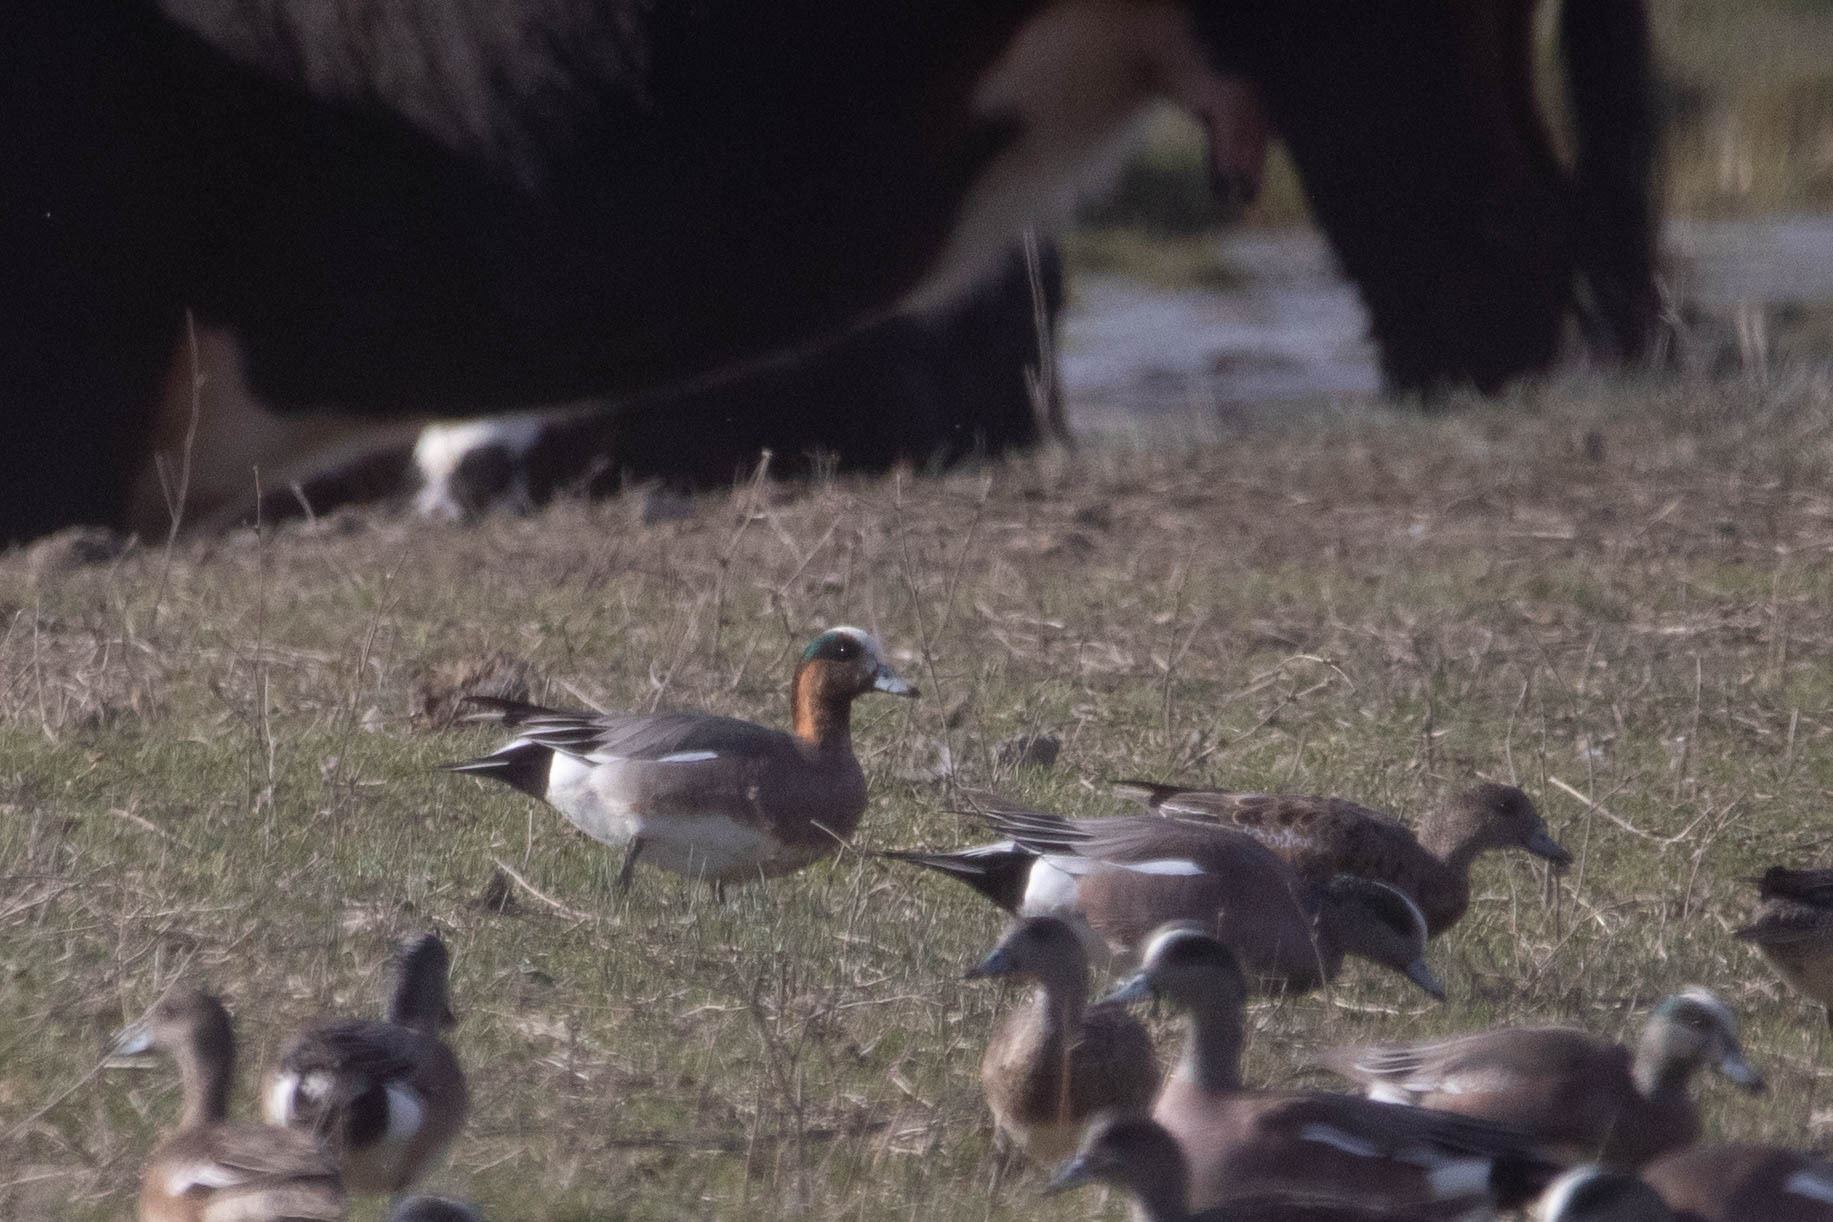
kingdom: Animalia
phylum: Chordata
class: Aves
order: Anseriformes
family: Anatidae
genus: Mareca
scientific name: Mareca
